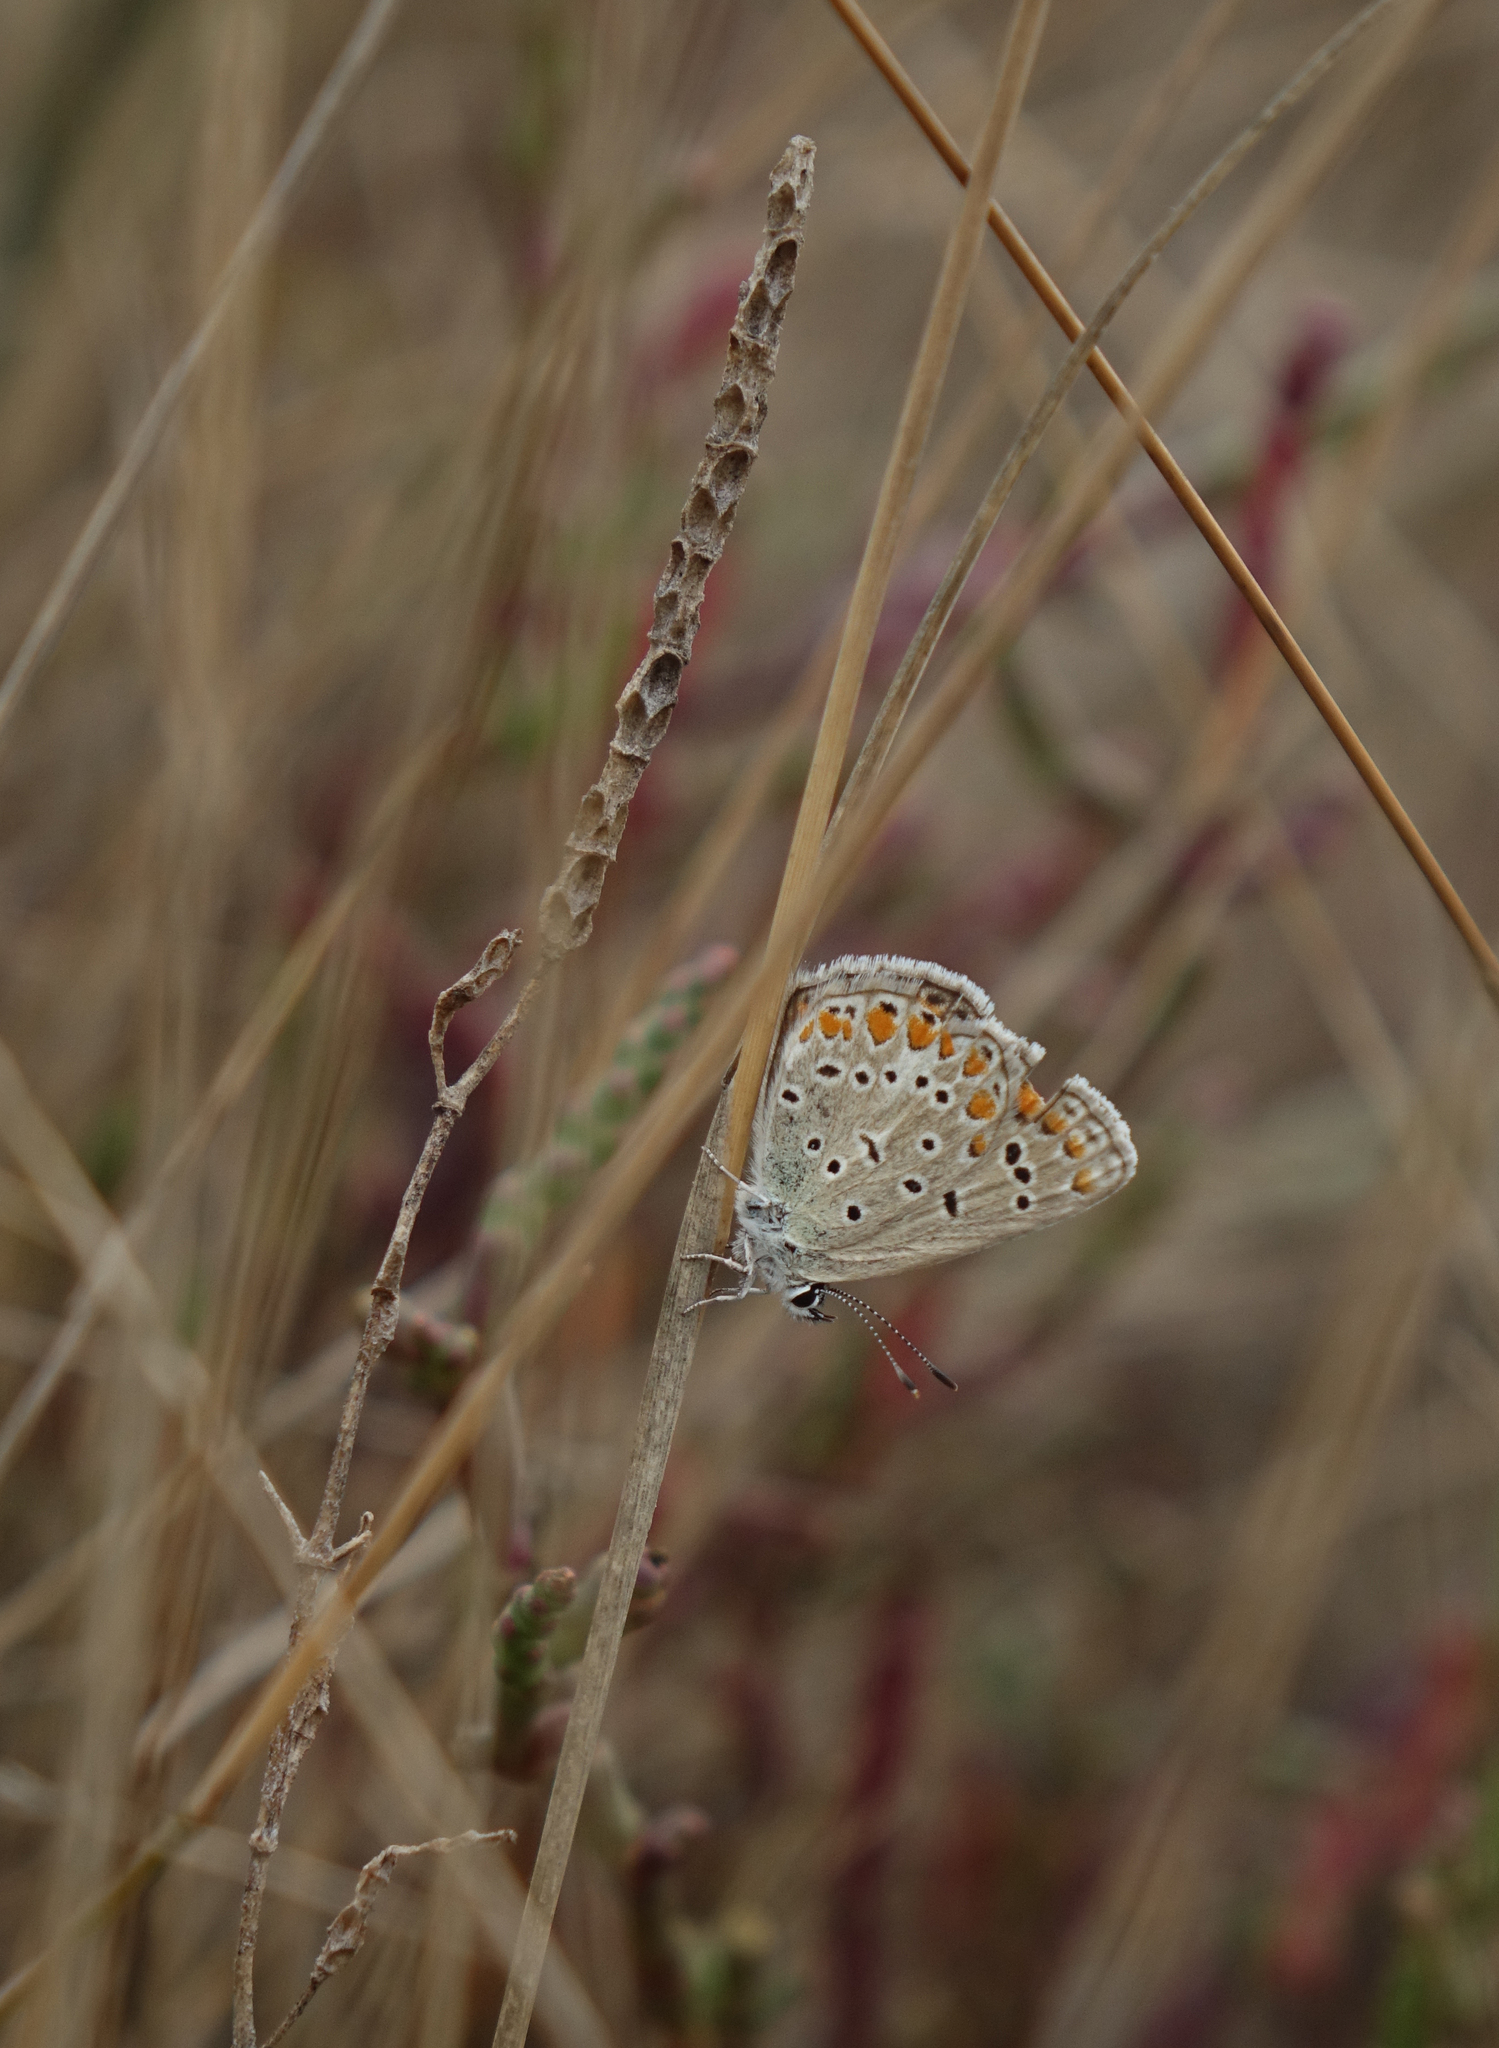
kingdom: Animalia
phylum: Arthropoda
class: Insecta
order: Lepidoptera
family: Lycaenidae
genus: Polyommatus
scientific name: Polyommatus icarus
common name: Common blue
